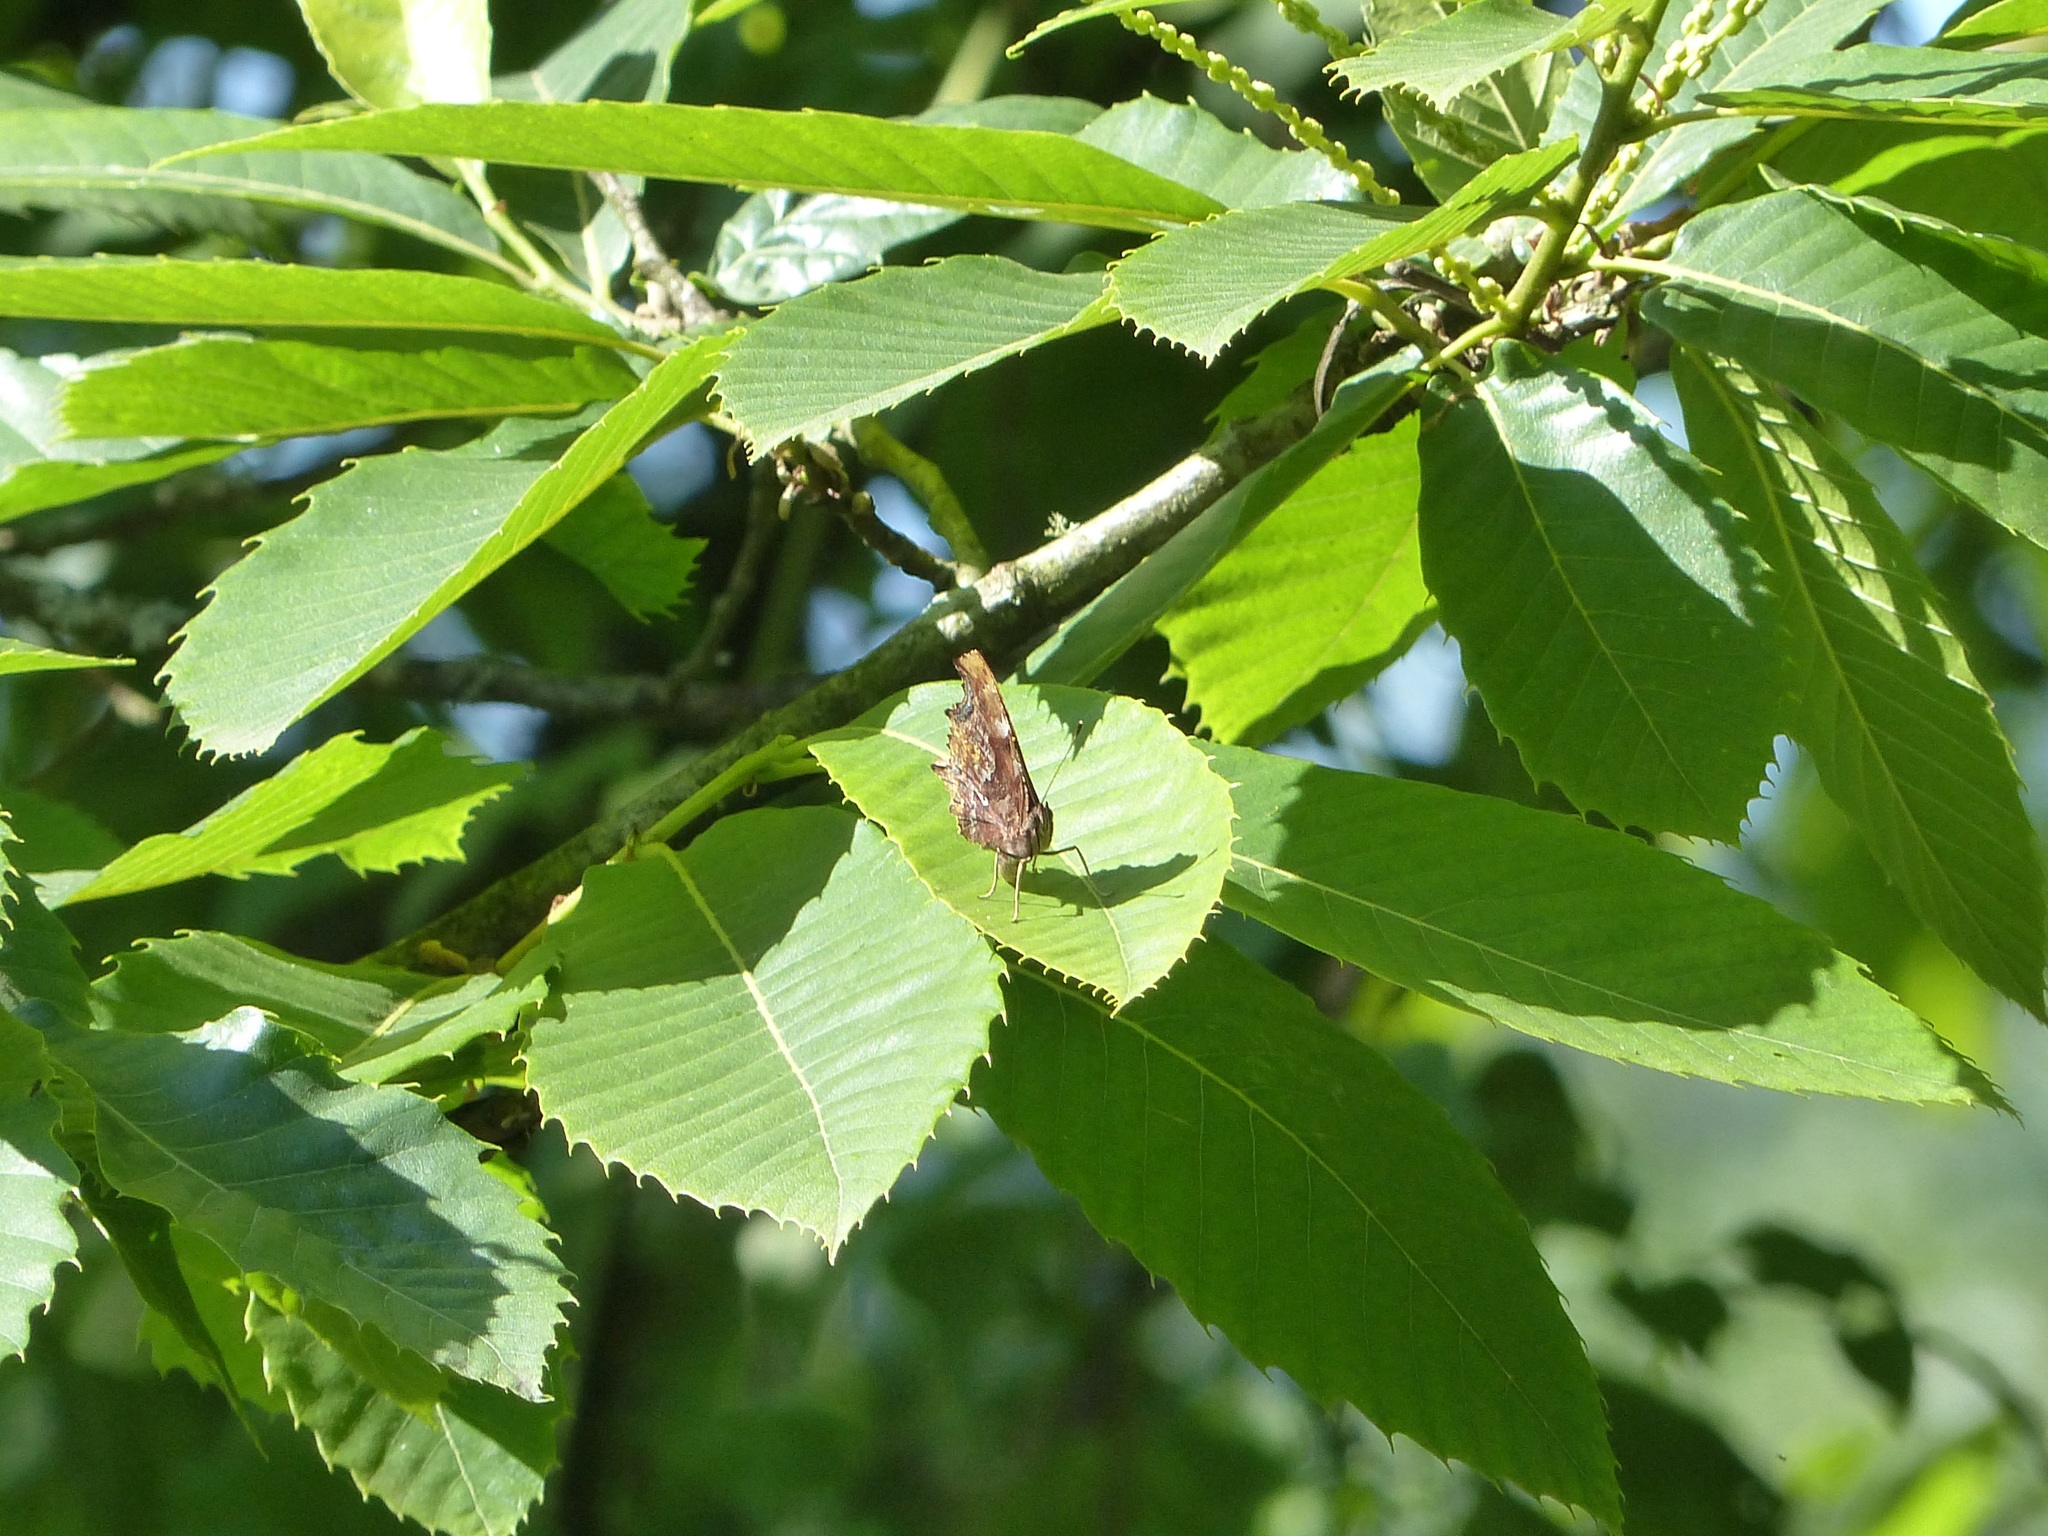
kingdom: Plantae
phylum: Tracheophyta
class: Magnoliopsida
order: Fagales
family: Fagaceae
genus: Castanea
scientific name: Castanea sativa
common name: Sweet chestnut
